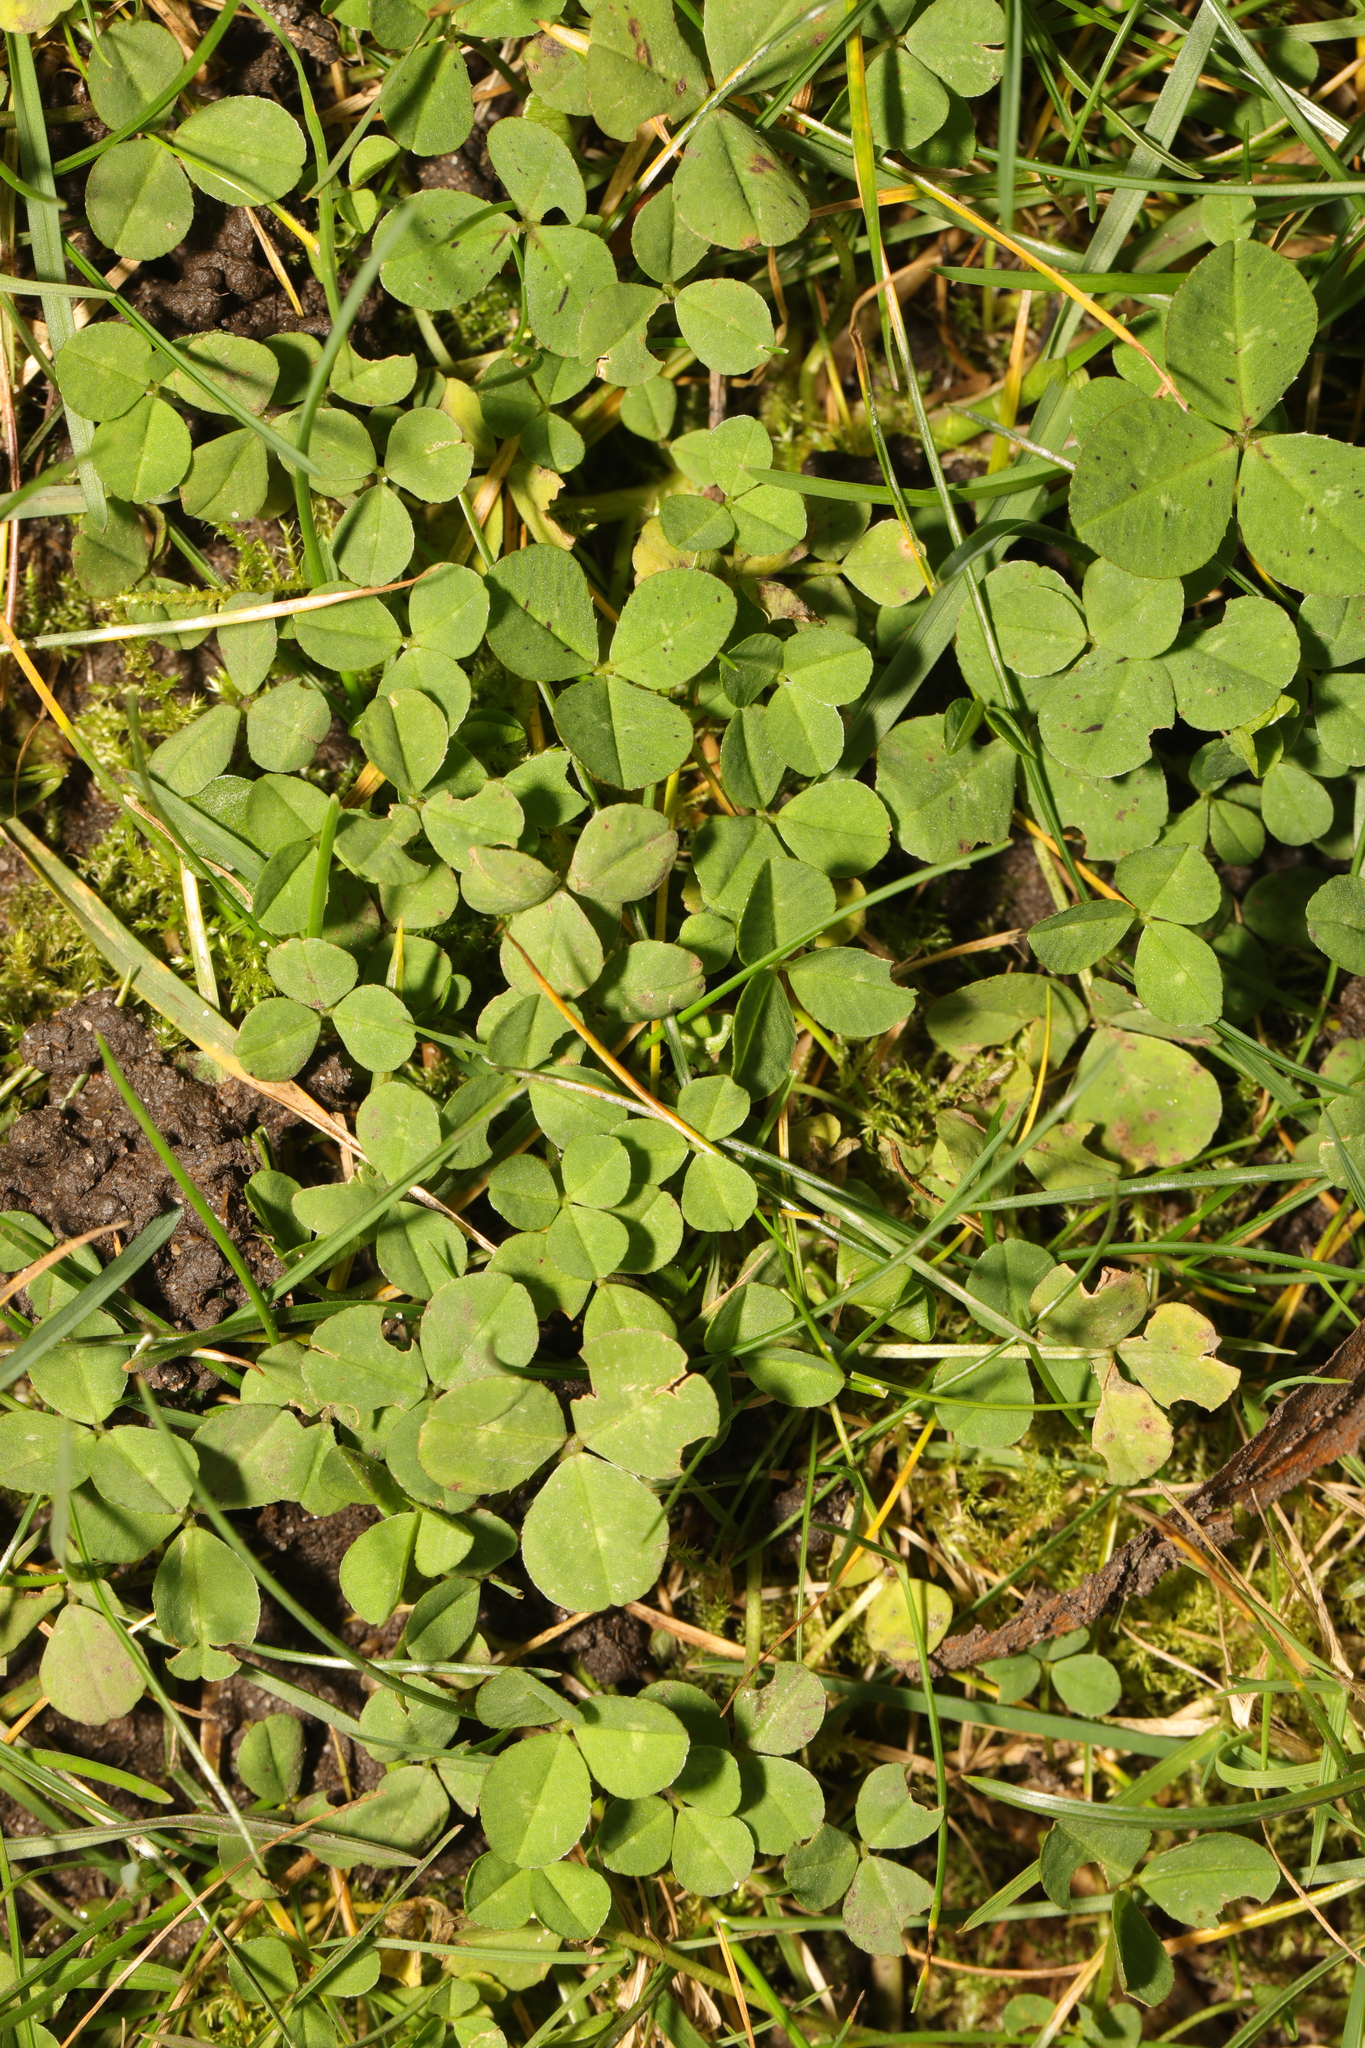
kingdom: Plantae
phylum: Tracheophyta
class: Magnoliopsida
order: Fabales
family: Fabaceae
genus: Trifolium
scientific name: Trifolium repens
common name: White clover
